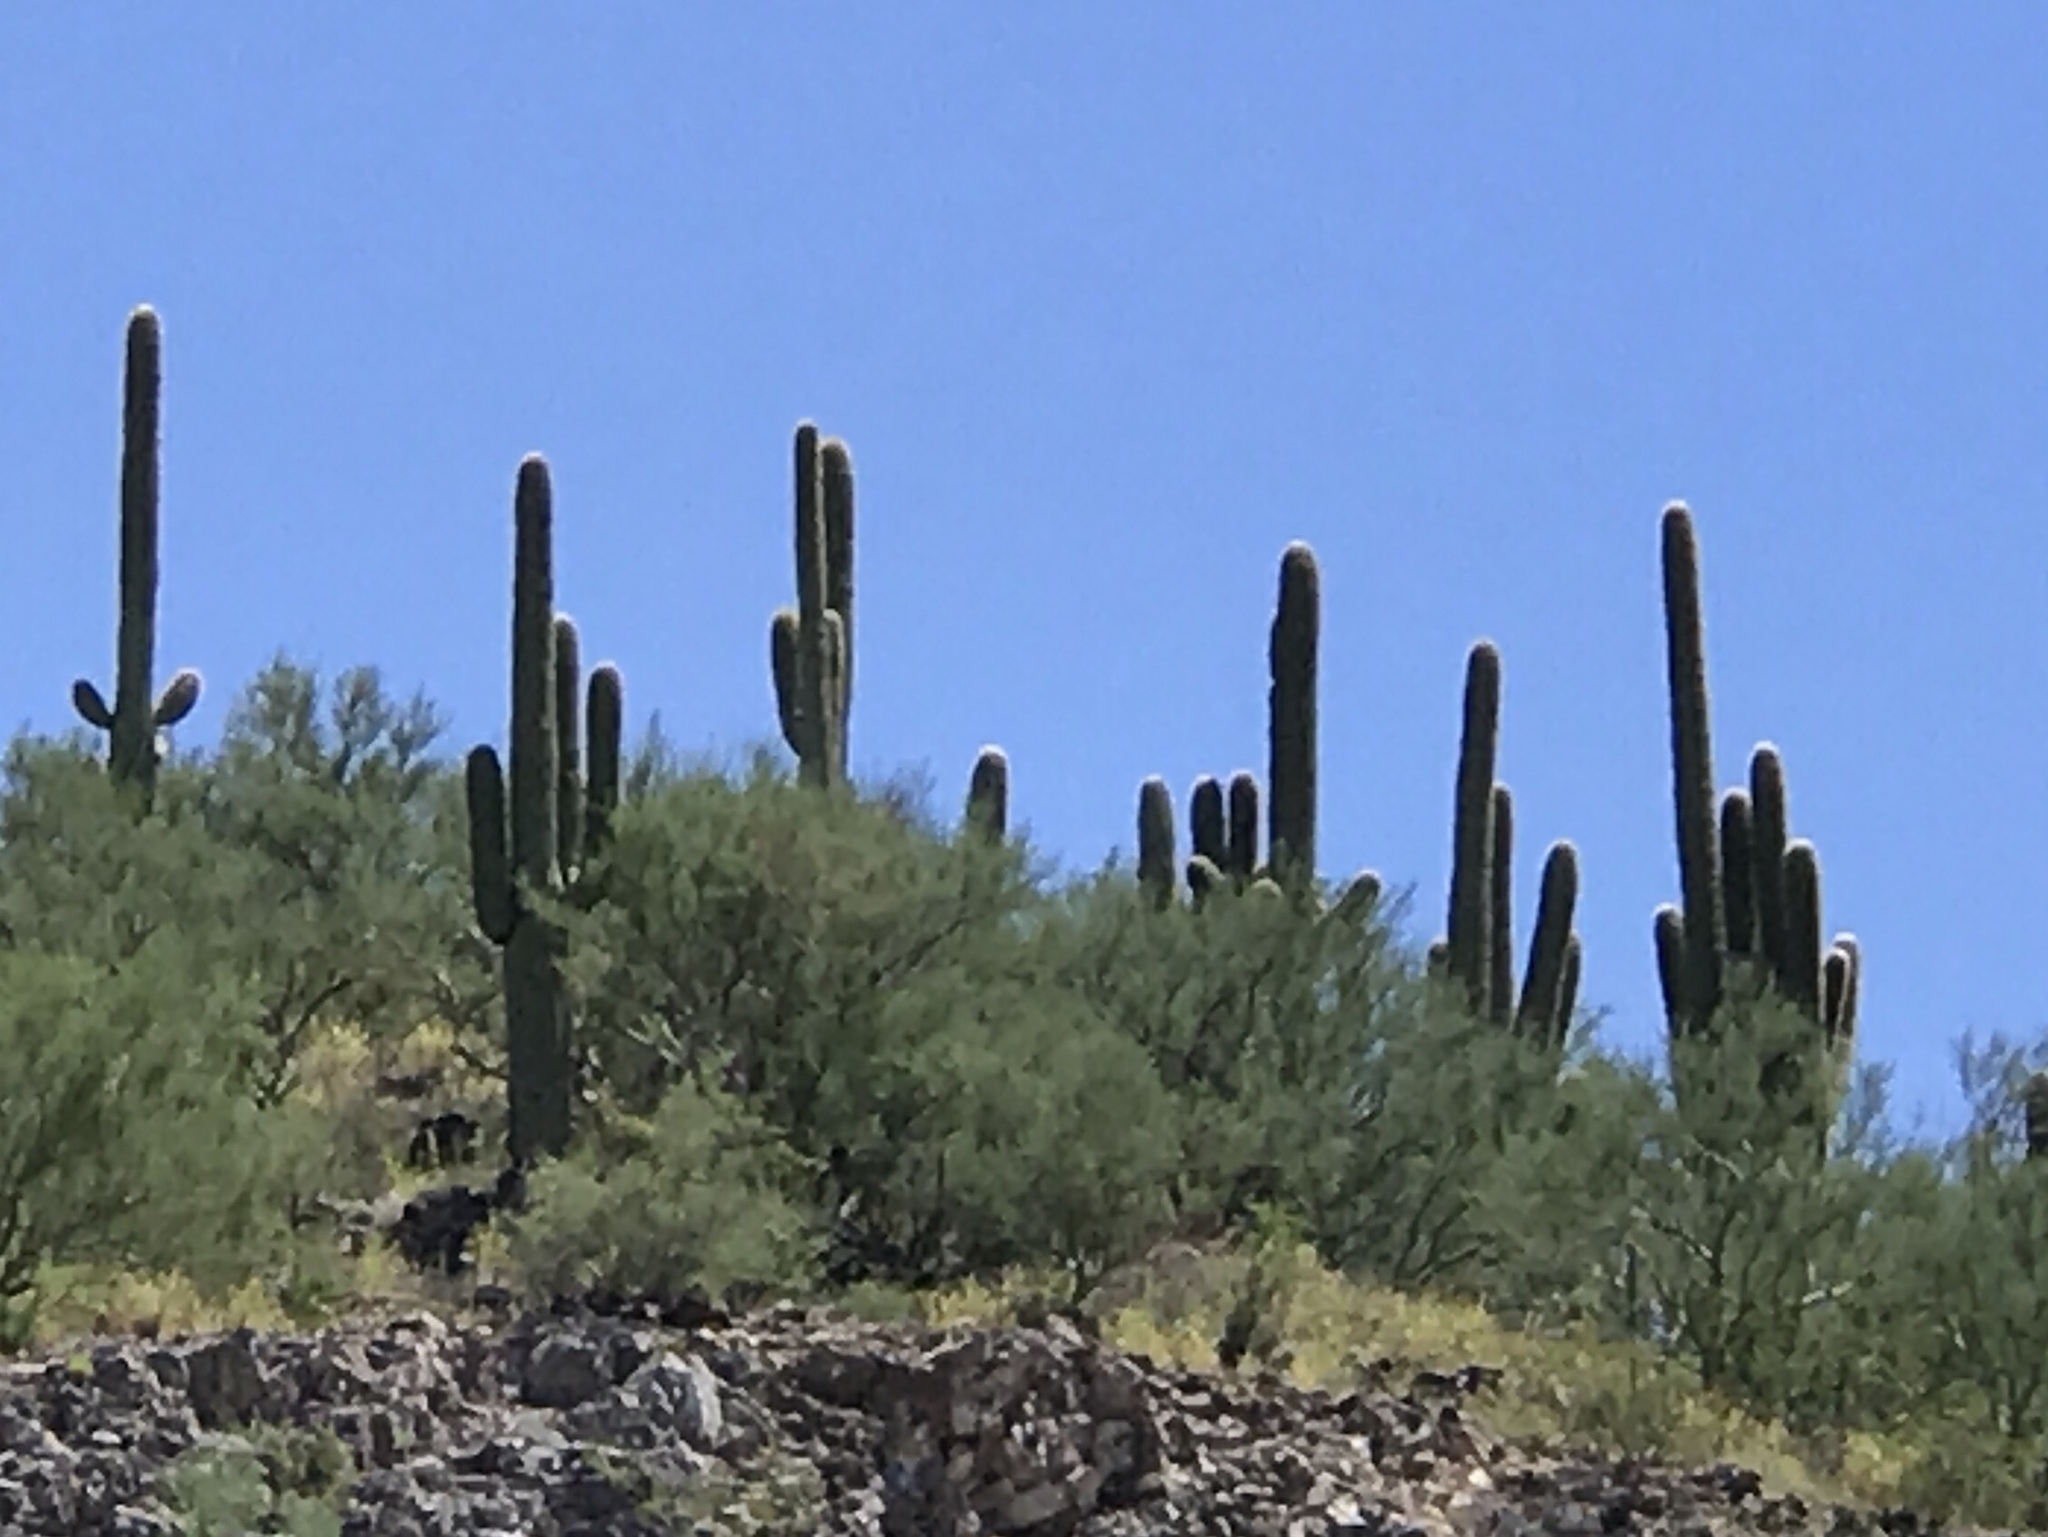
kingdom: Plantae
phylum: Tracheophyta
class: Magnoliopsida
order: Caryophyllales
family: Cactaceae
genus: Carnegiea
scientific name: Carnegiea gigantea
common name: Saguaro
